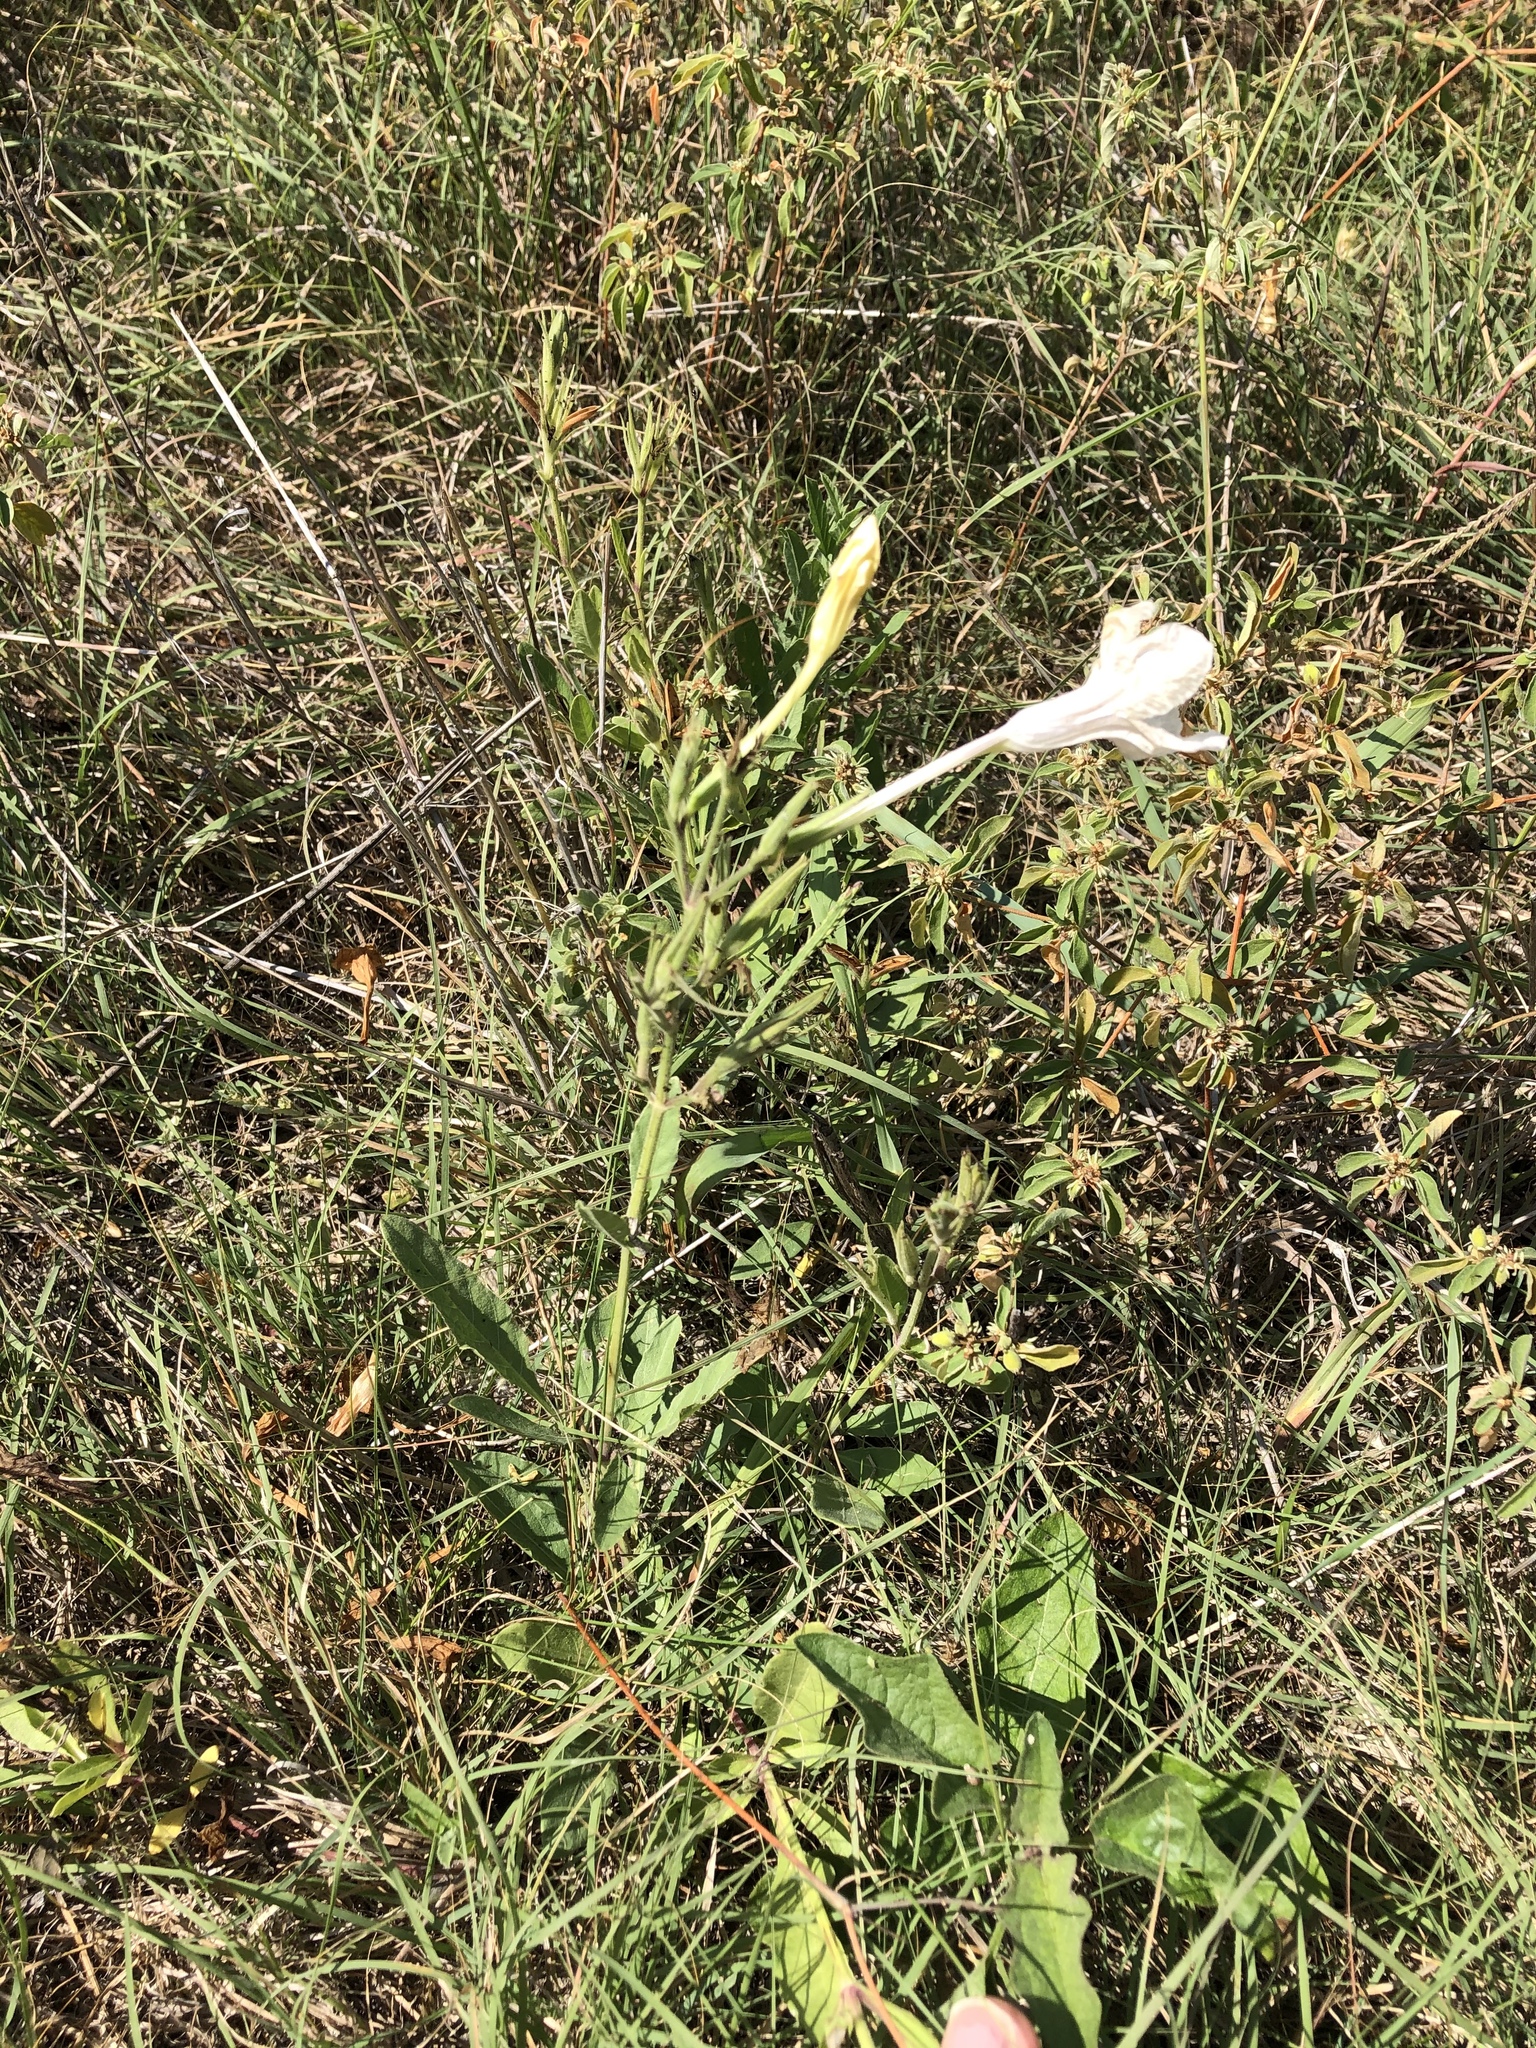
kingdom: Plantae
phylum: Tracheophyta
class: Magnoliopsida
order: Lamiales
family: Acanthaceae
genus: Ruellia
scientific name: Ruellia metziae
